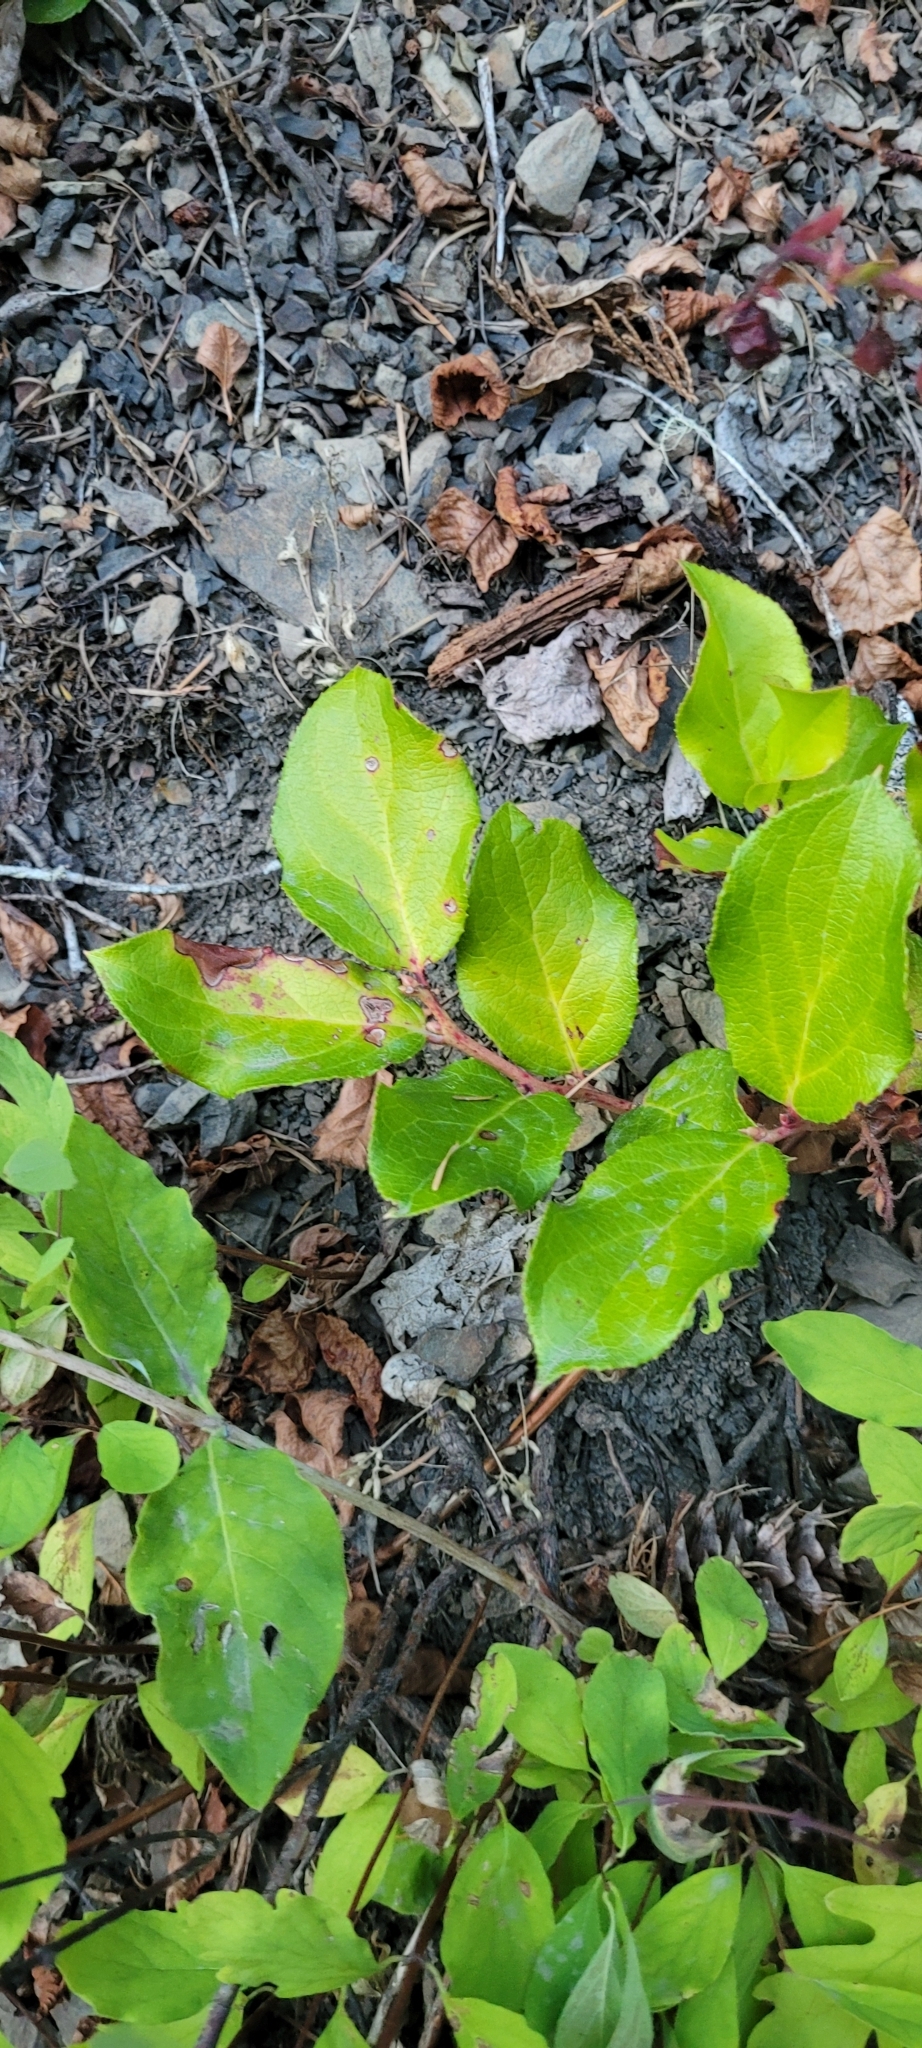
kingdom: Plantae
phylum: Tracheophyta
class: Magnoliopsida
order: Ericales
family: Ericaceae
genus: Gaultheria
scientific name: Gaultheria shallon
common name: Shallon
